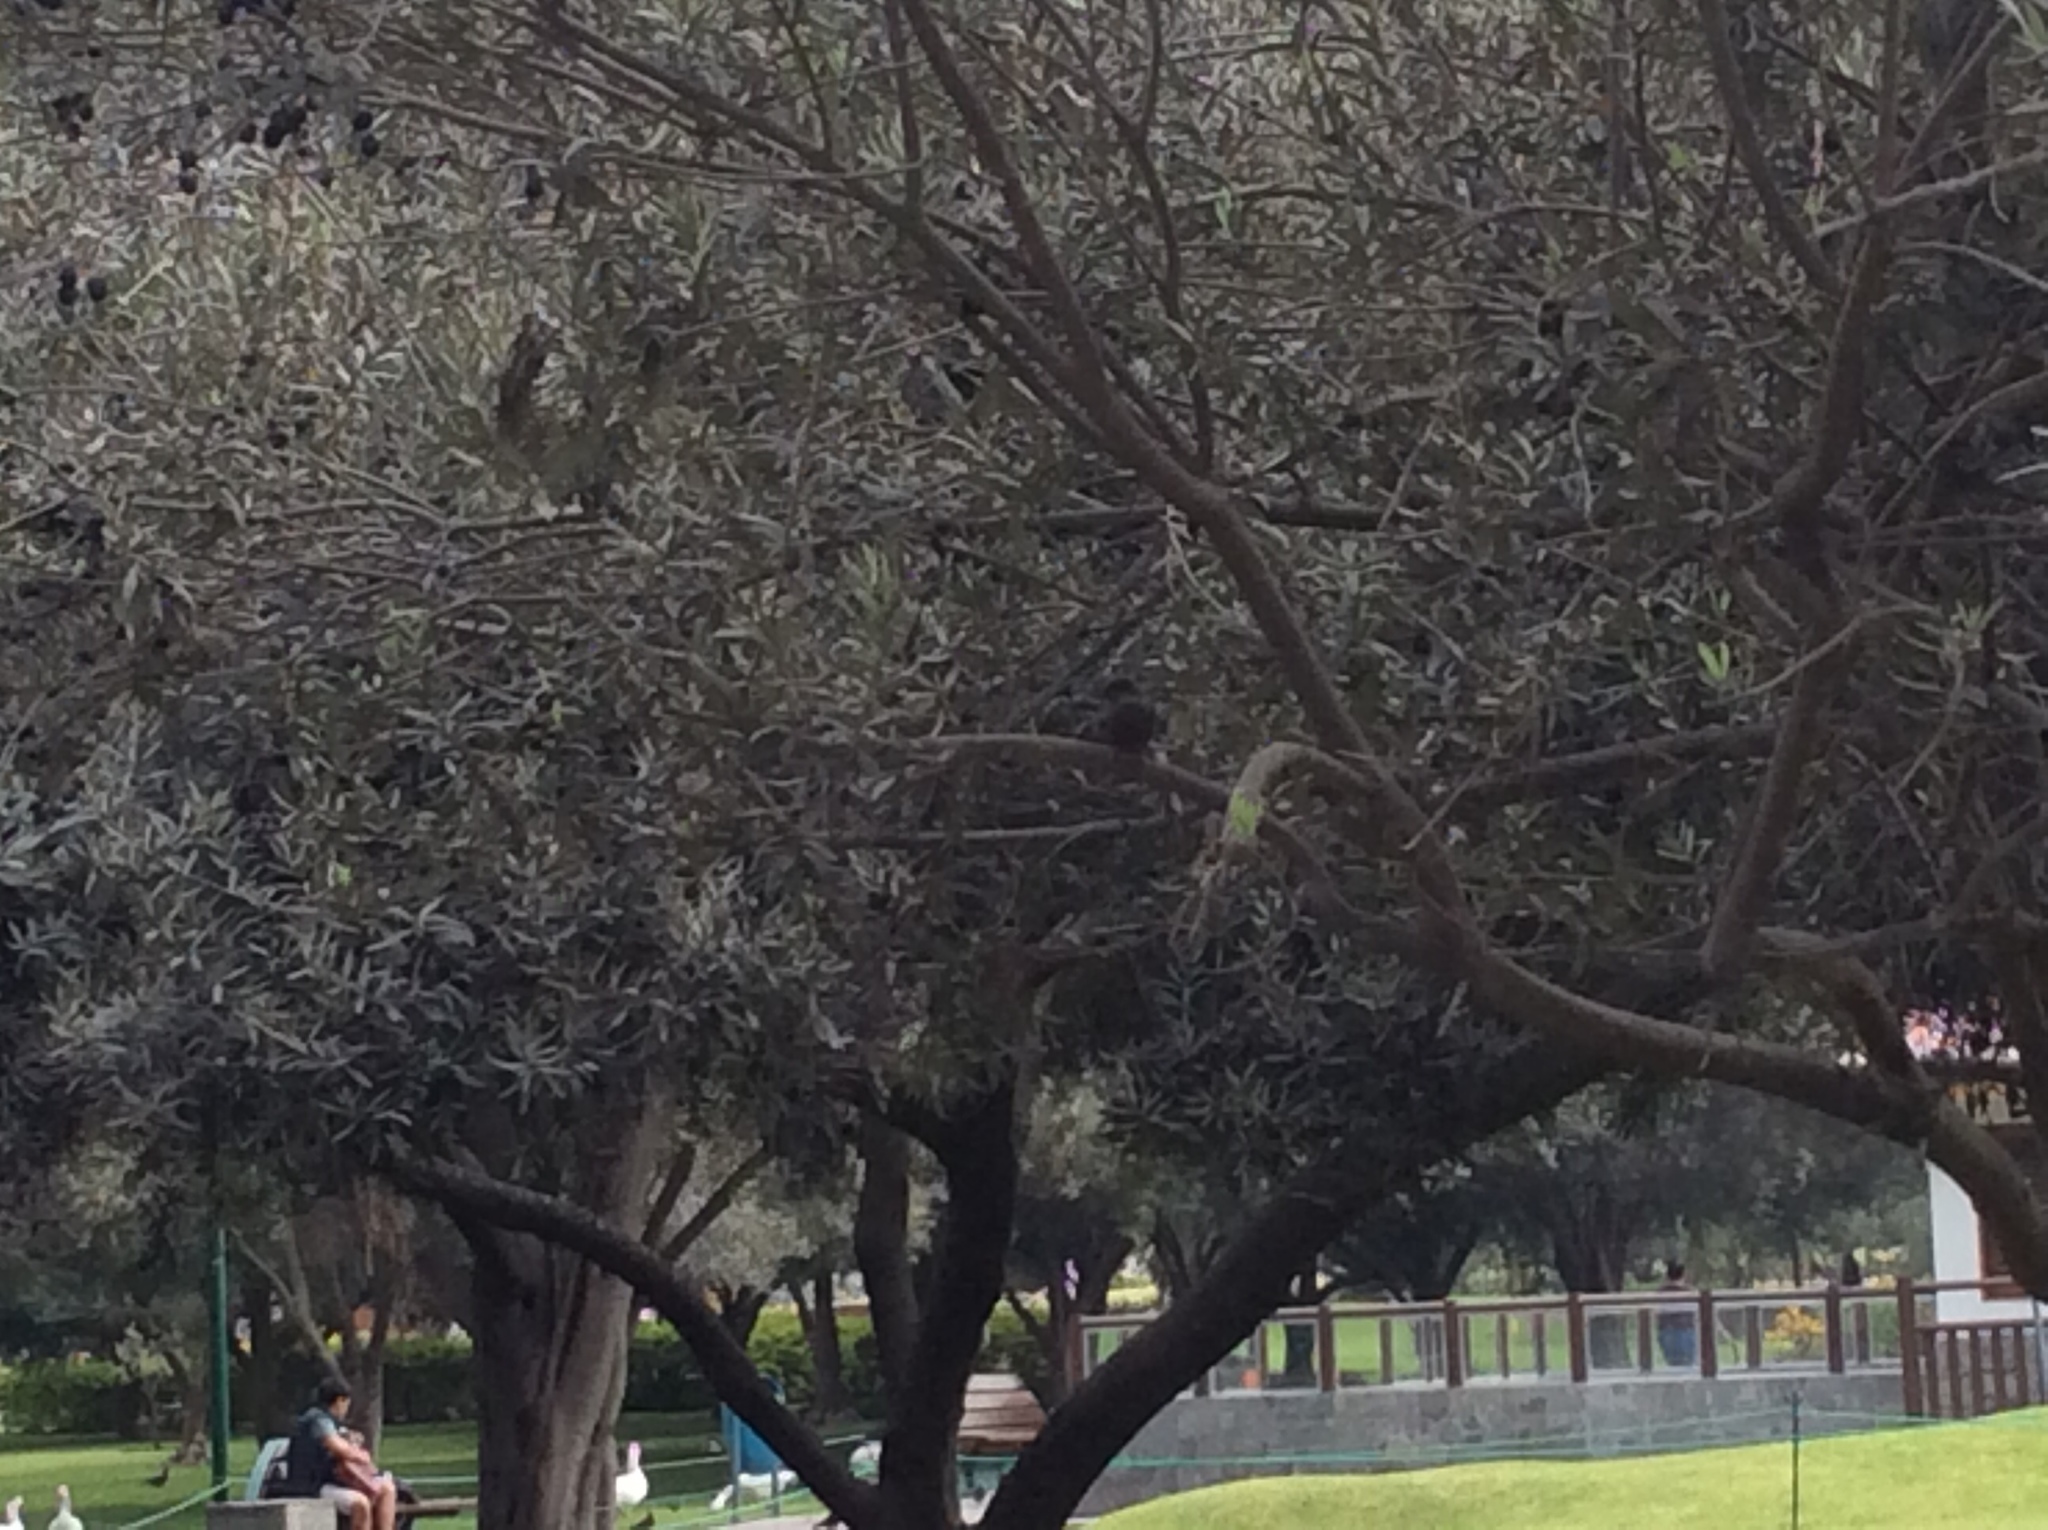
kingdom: Animalia
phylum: Chordata
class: Aves
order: Passeriformes
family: Tyrannidae
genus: Pyrocephalus
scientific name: Pyrocephalus rubinus
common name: Vermilion flycatcher
